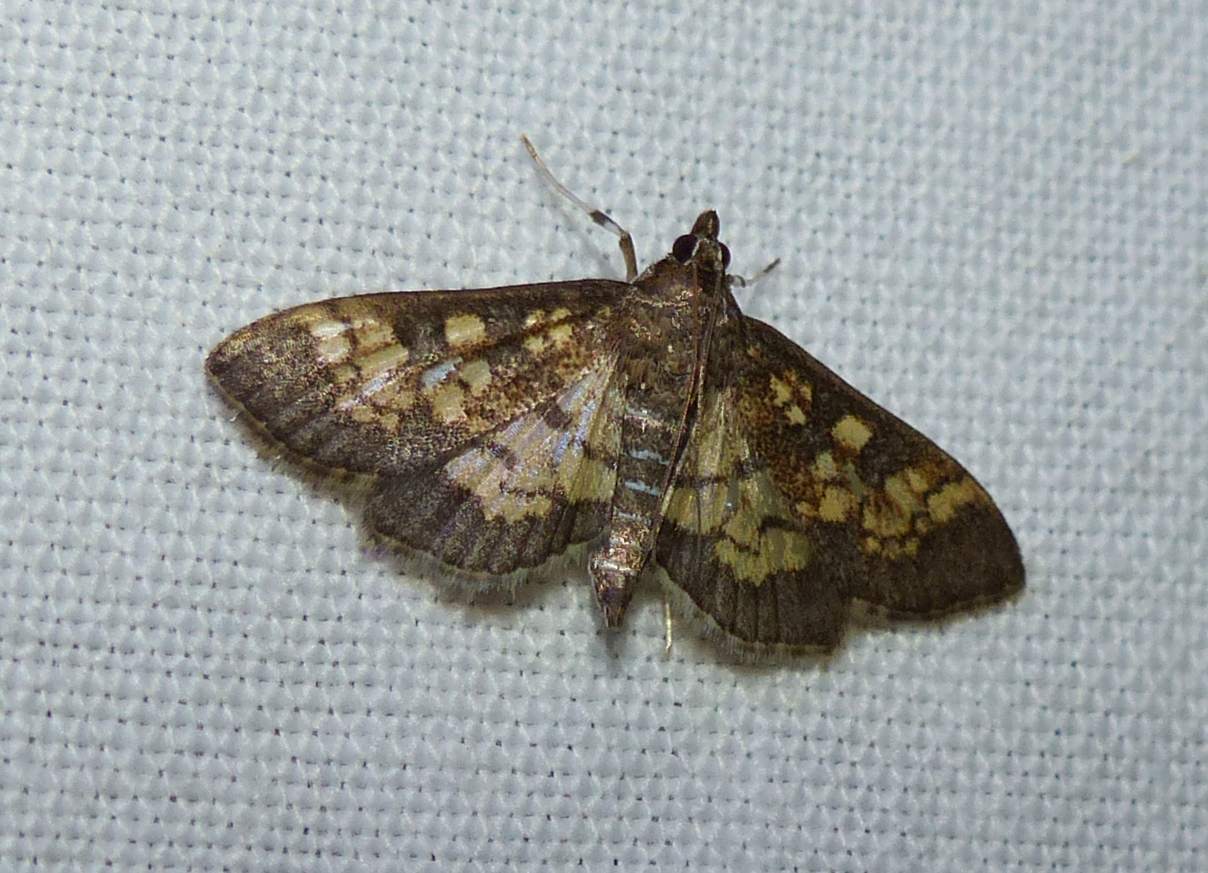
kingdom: Animalia
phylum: Arthropoda
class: Insecta
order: Lepidoptera
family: Crambidae
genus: Epipagis
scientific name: Epipagis adipaloides
